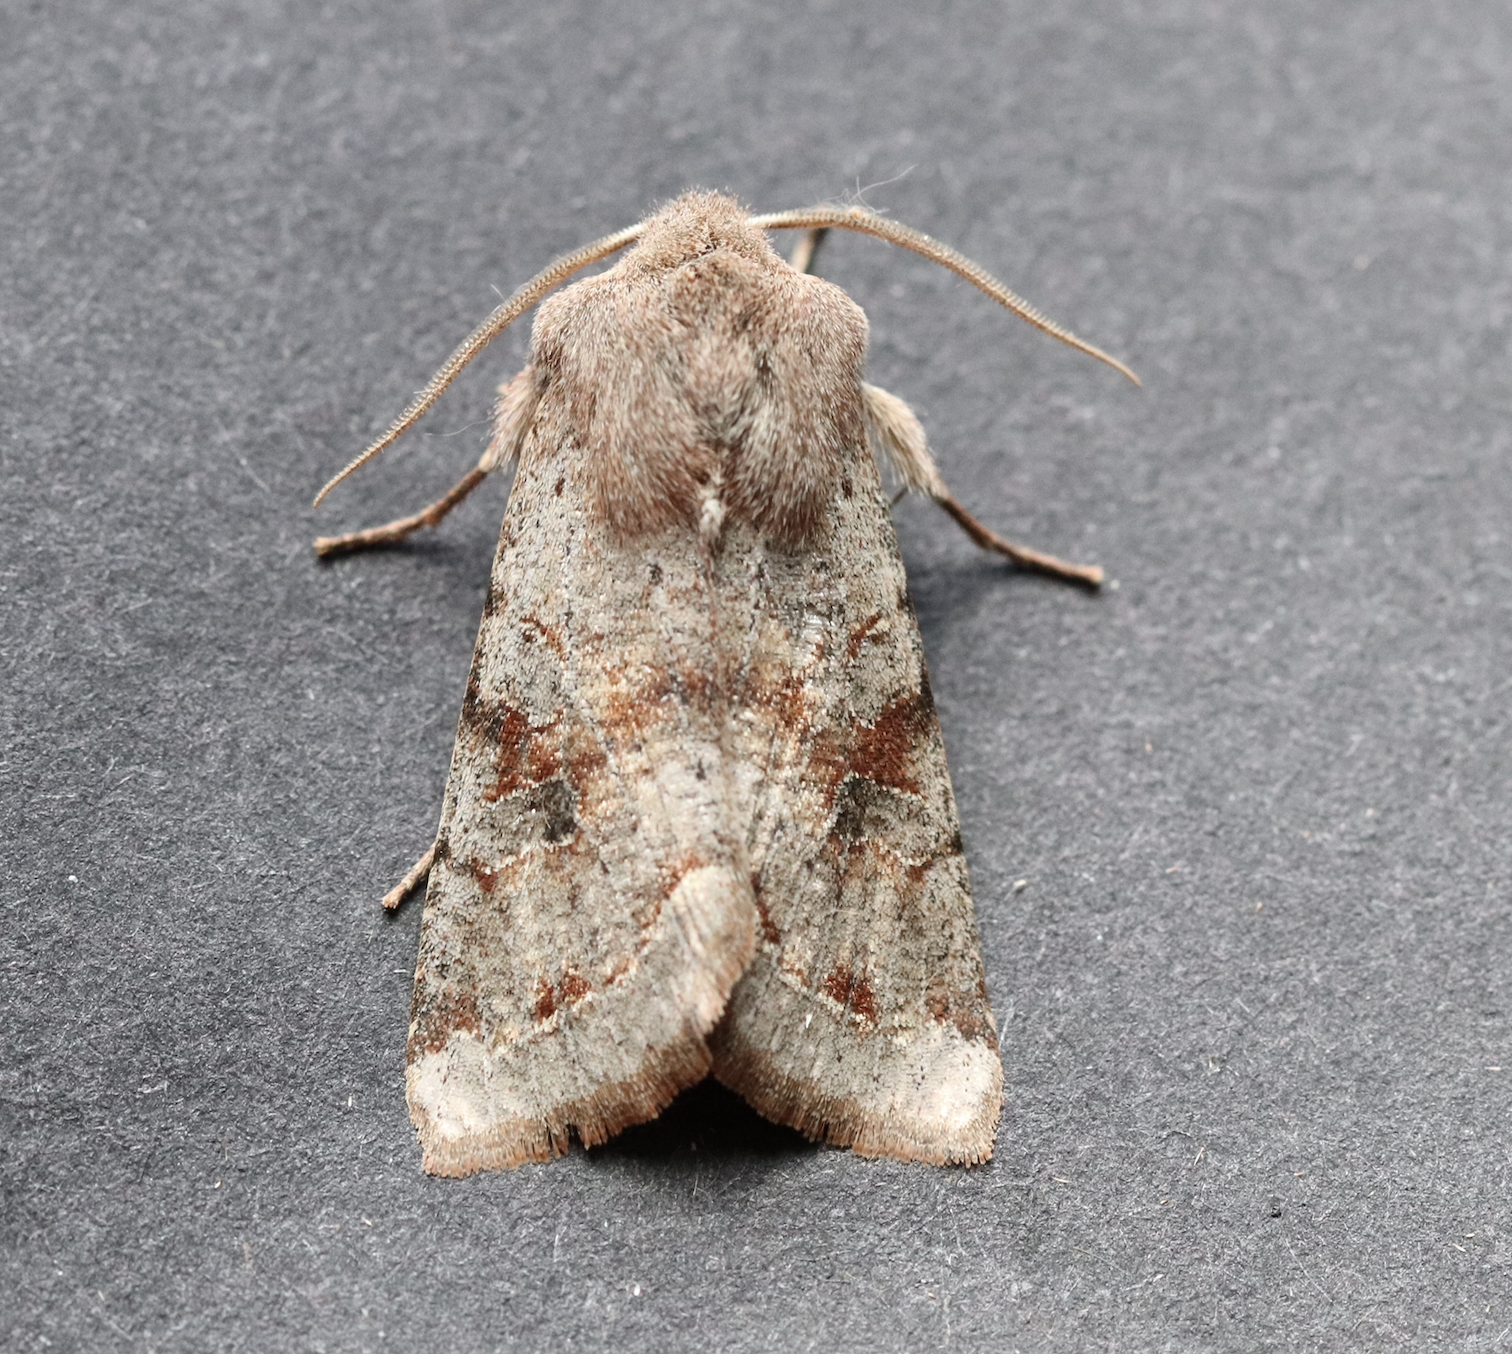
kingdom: Animalia
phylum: Arthropoda
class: Insecta
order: Lepidoptera
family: Noctuidae
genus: Orthosia
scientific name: Orthosia incerta
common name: Clouded drab
